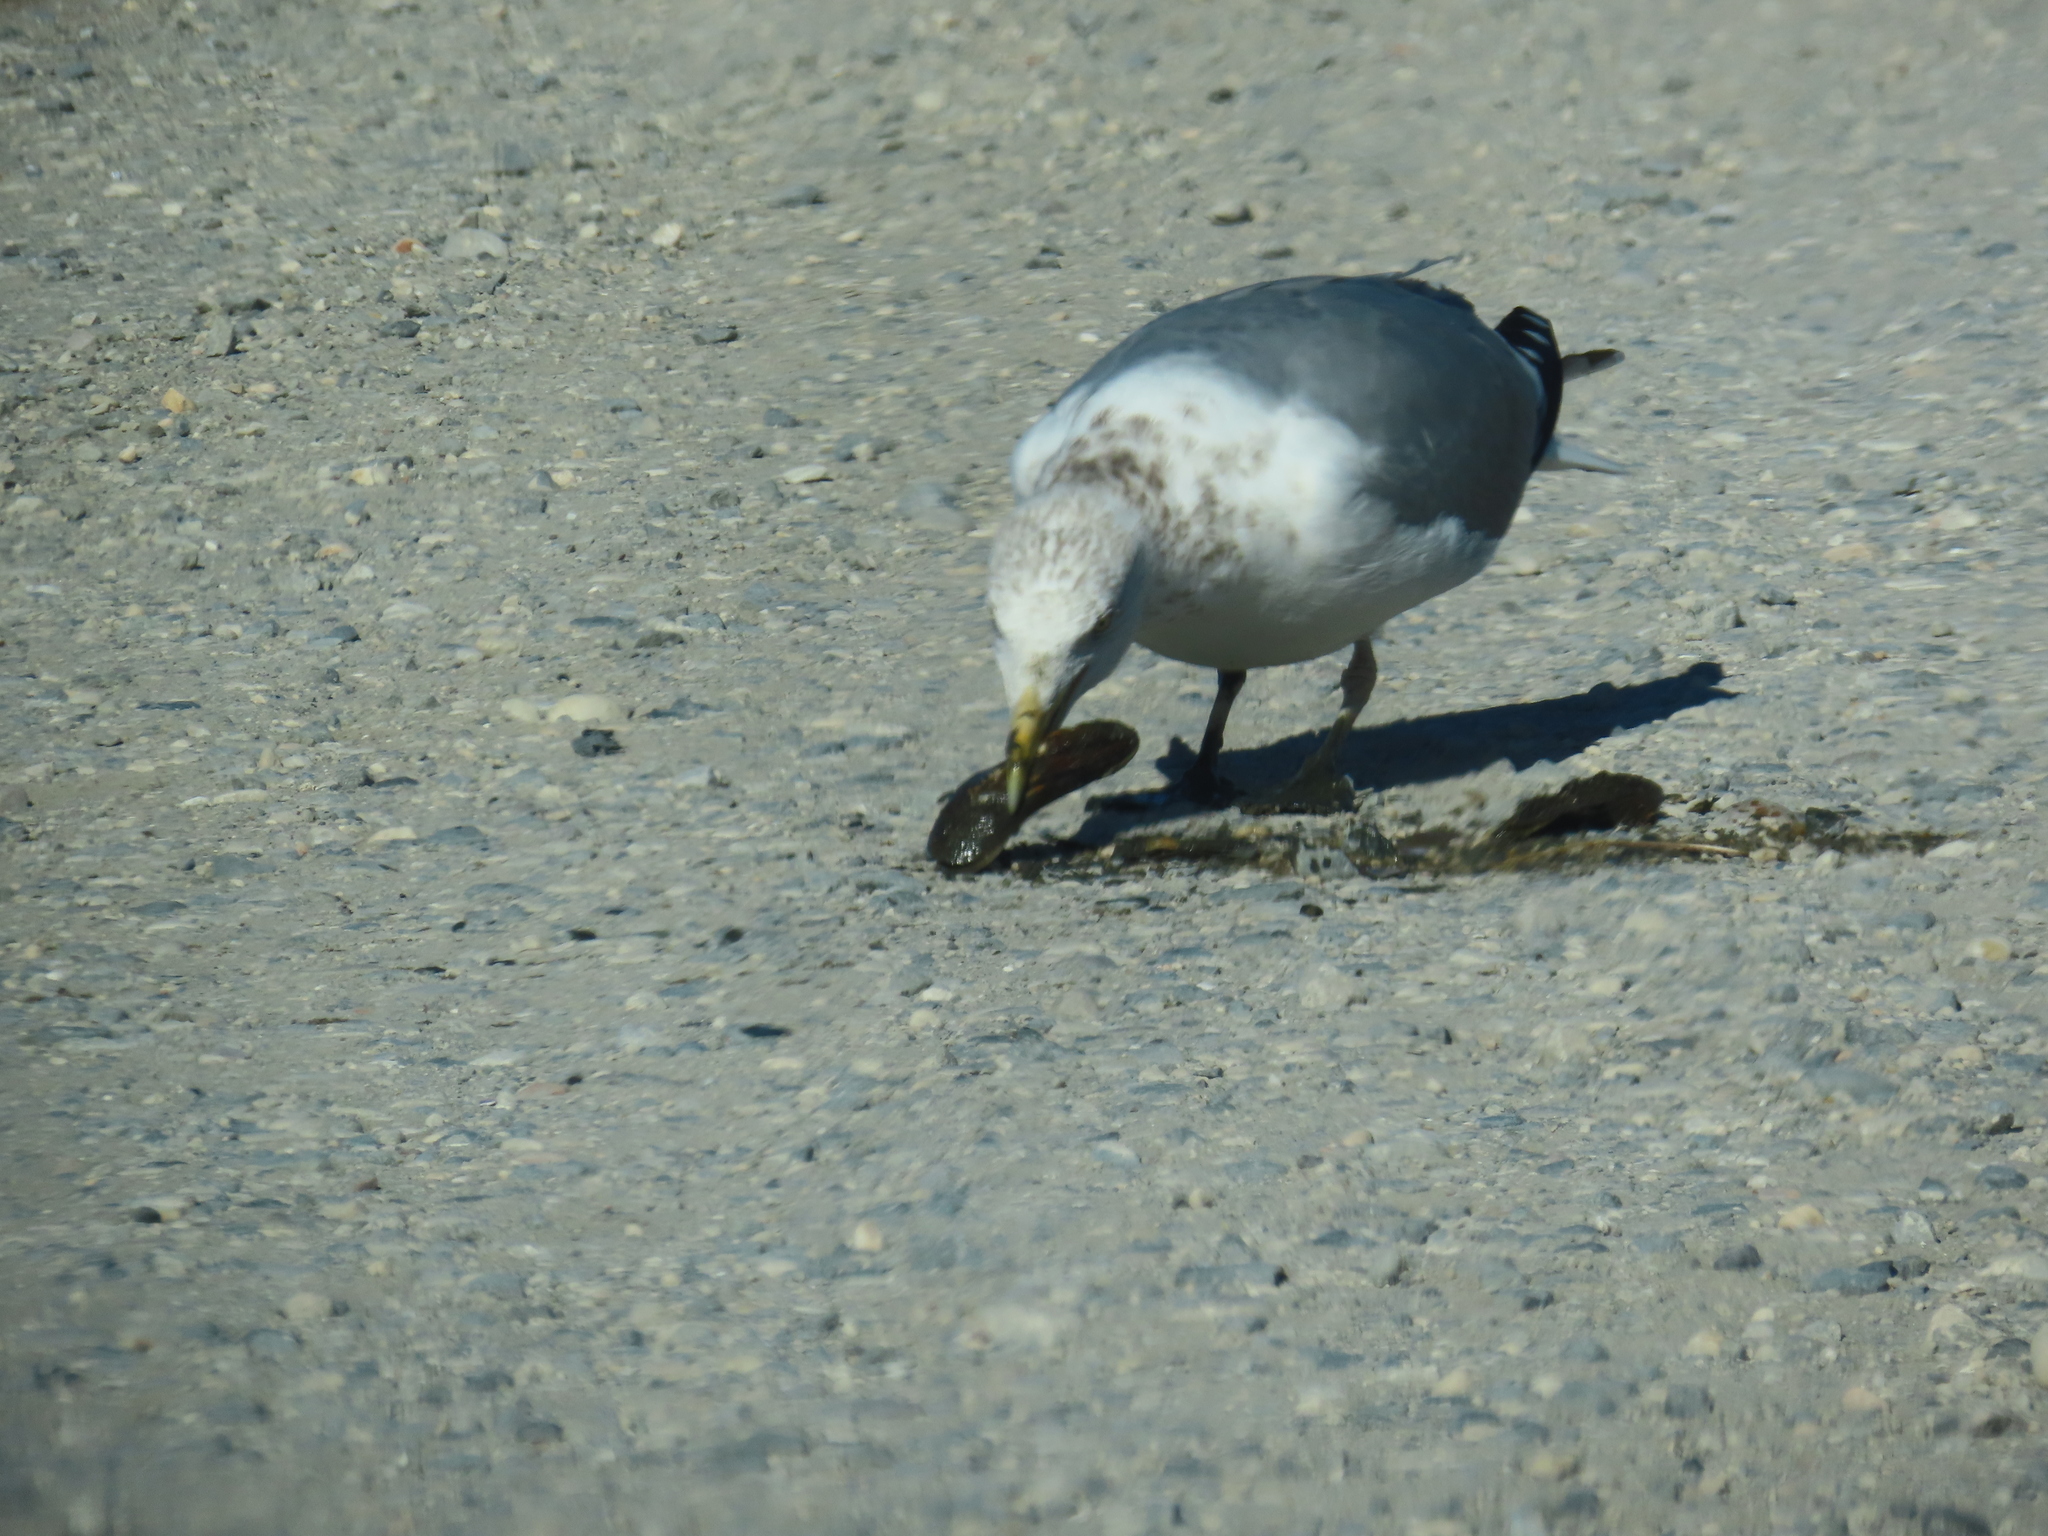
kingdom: Animalia
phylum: Chordata
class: Aves
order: Charadriiformes
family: Laridae
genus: Larus
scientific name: Larus smithsonianus
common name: American herring gull
